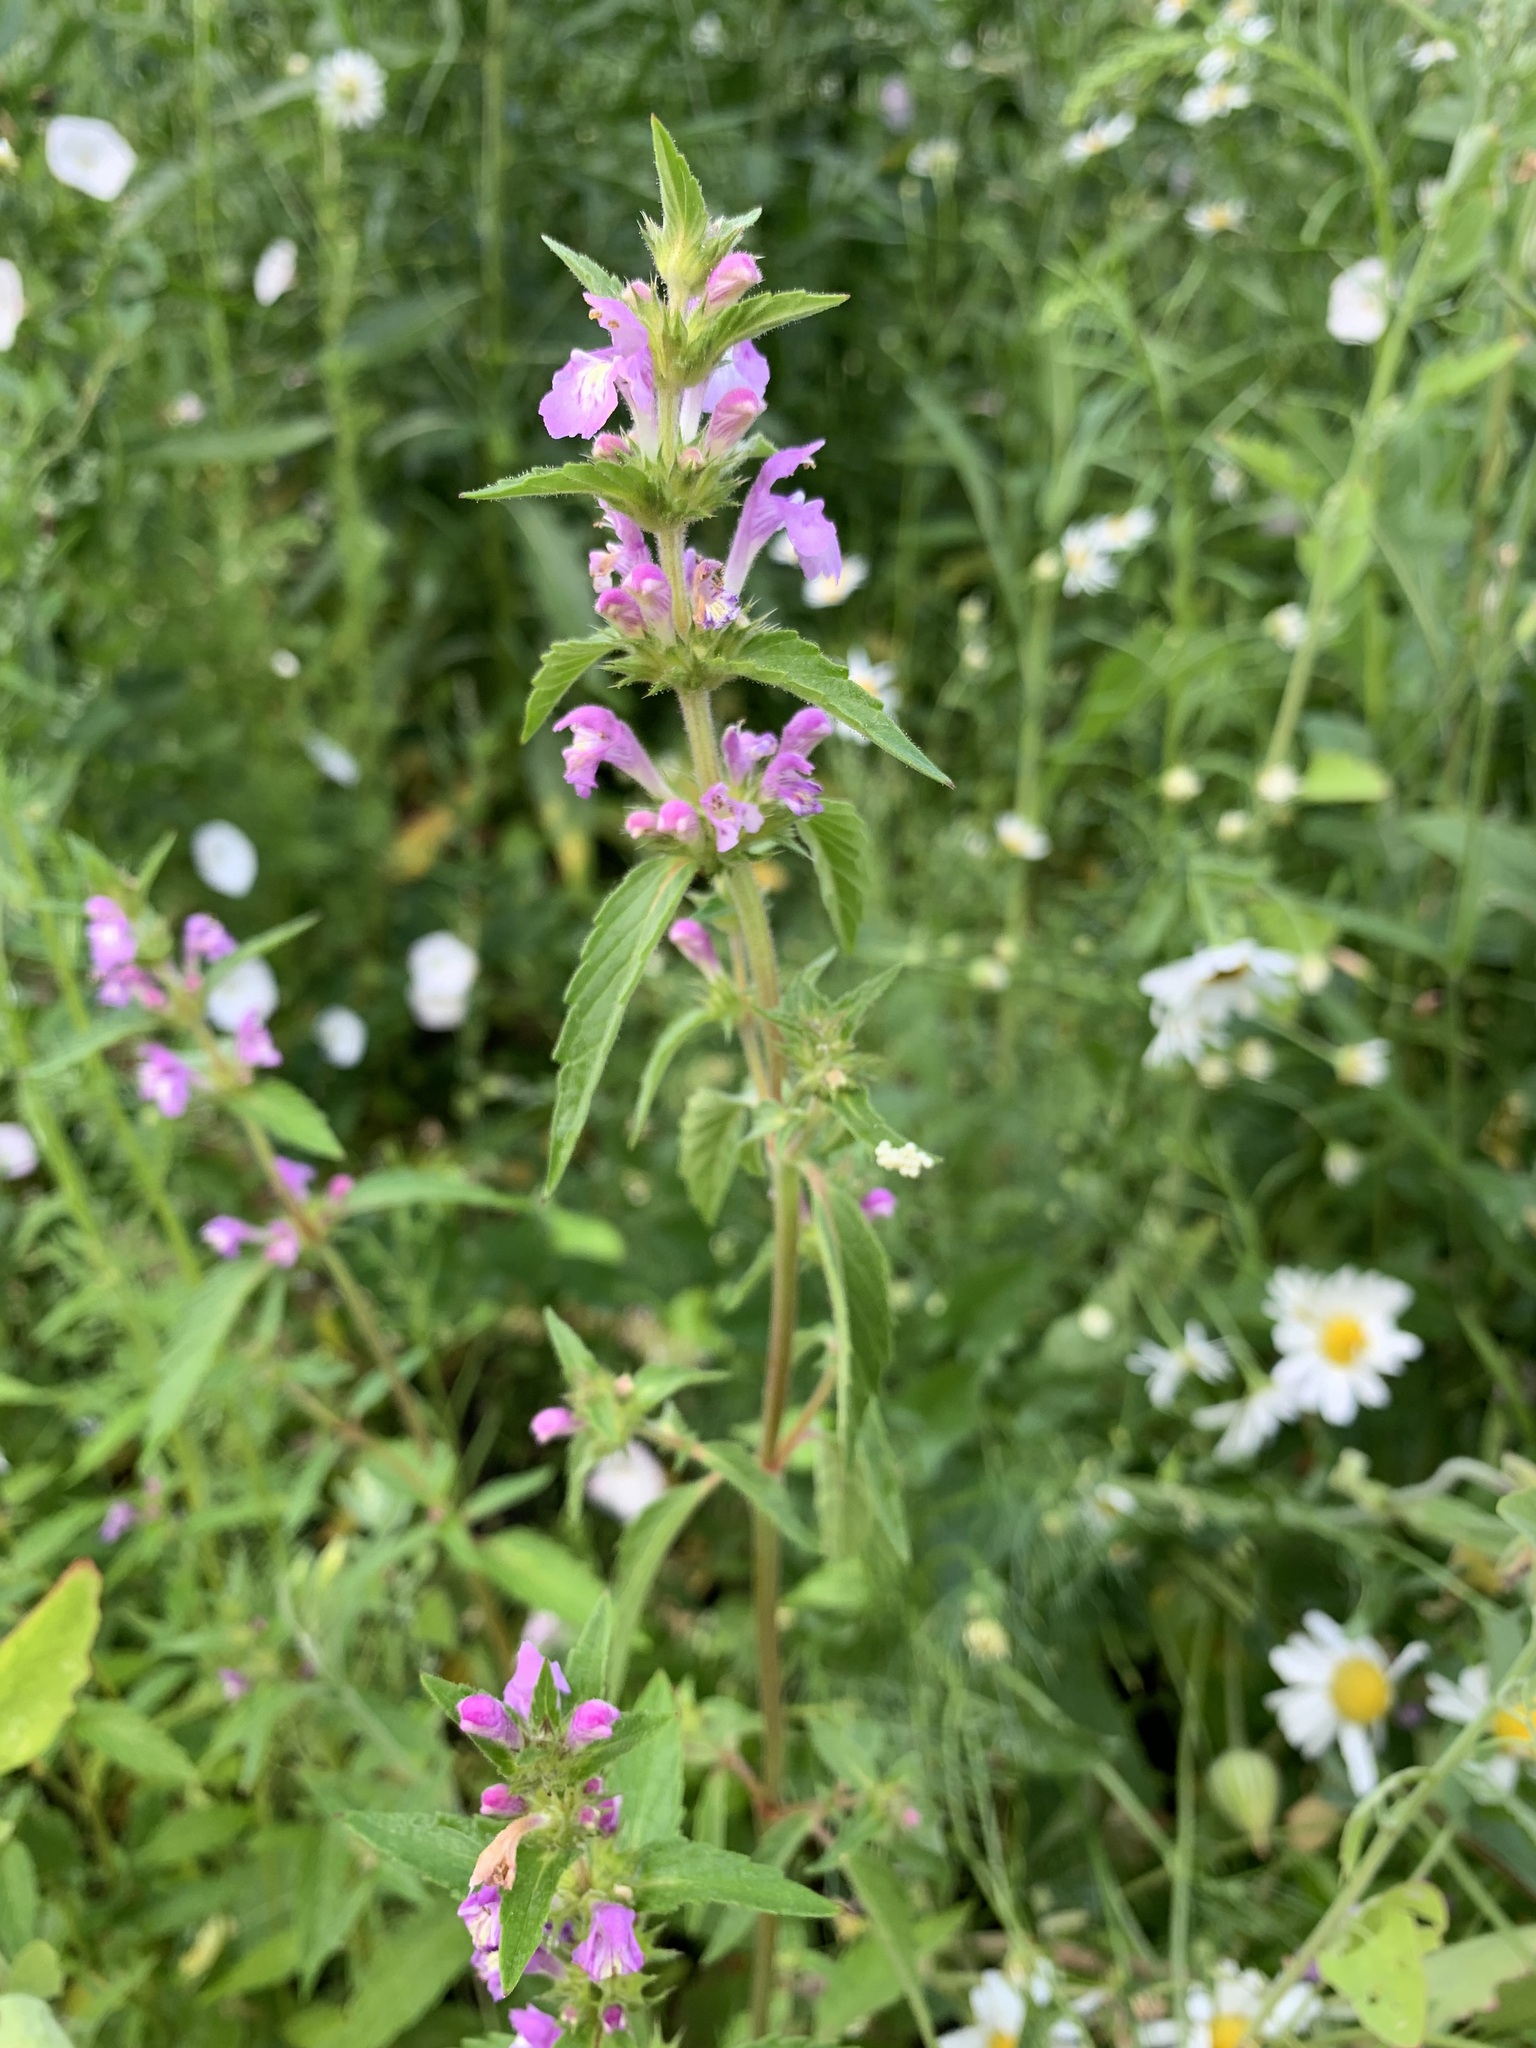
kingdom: Plantae
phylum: Tracheophyta
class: Magnoliopsida
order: Lamiales
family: Lamiaceae
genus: Galeopsis
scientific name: Galeopsis ladanum
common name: Broad-leaved hemp-nettle
